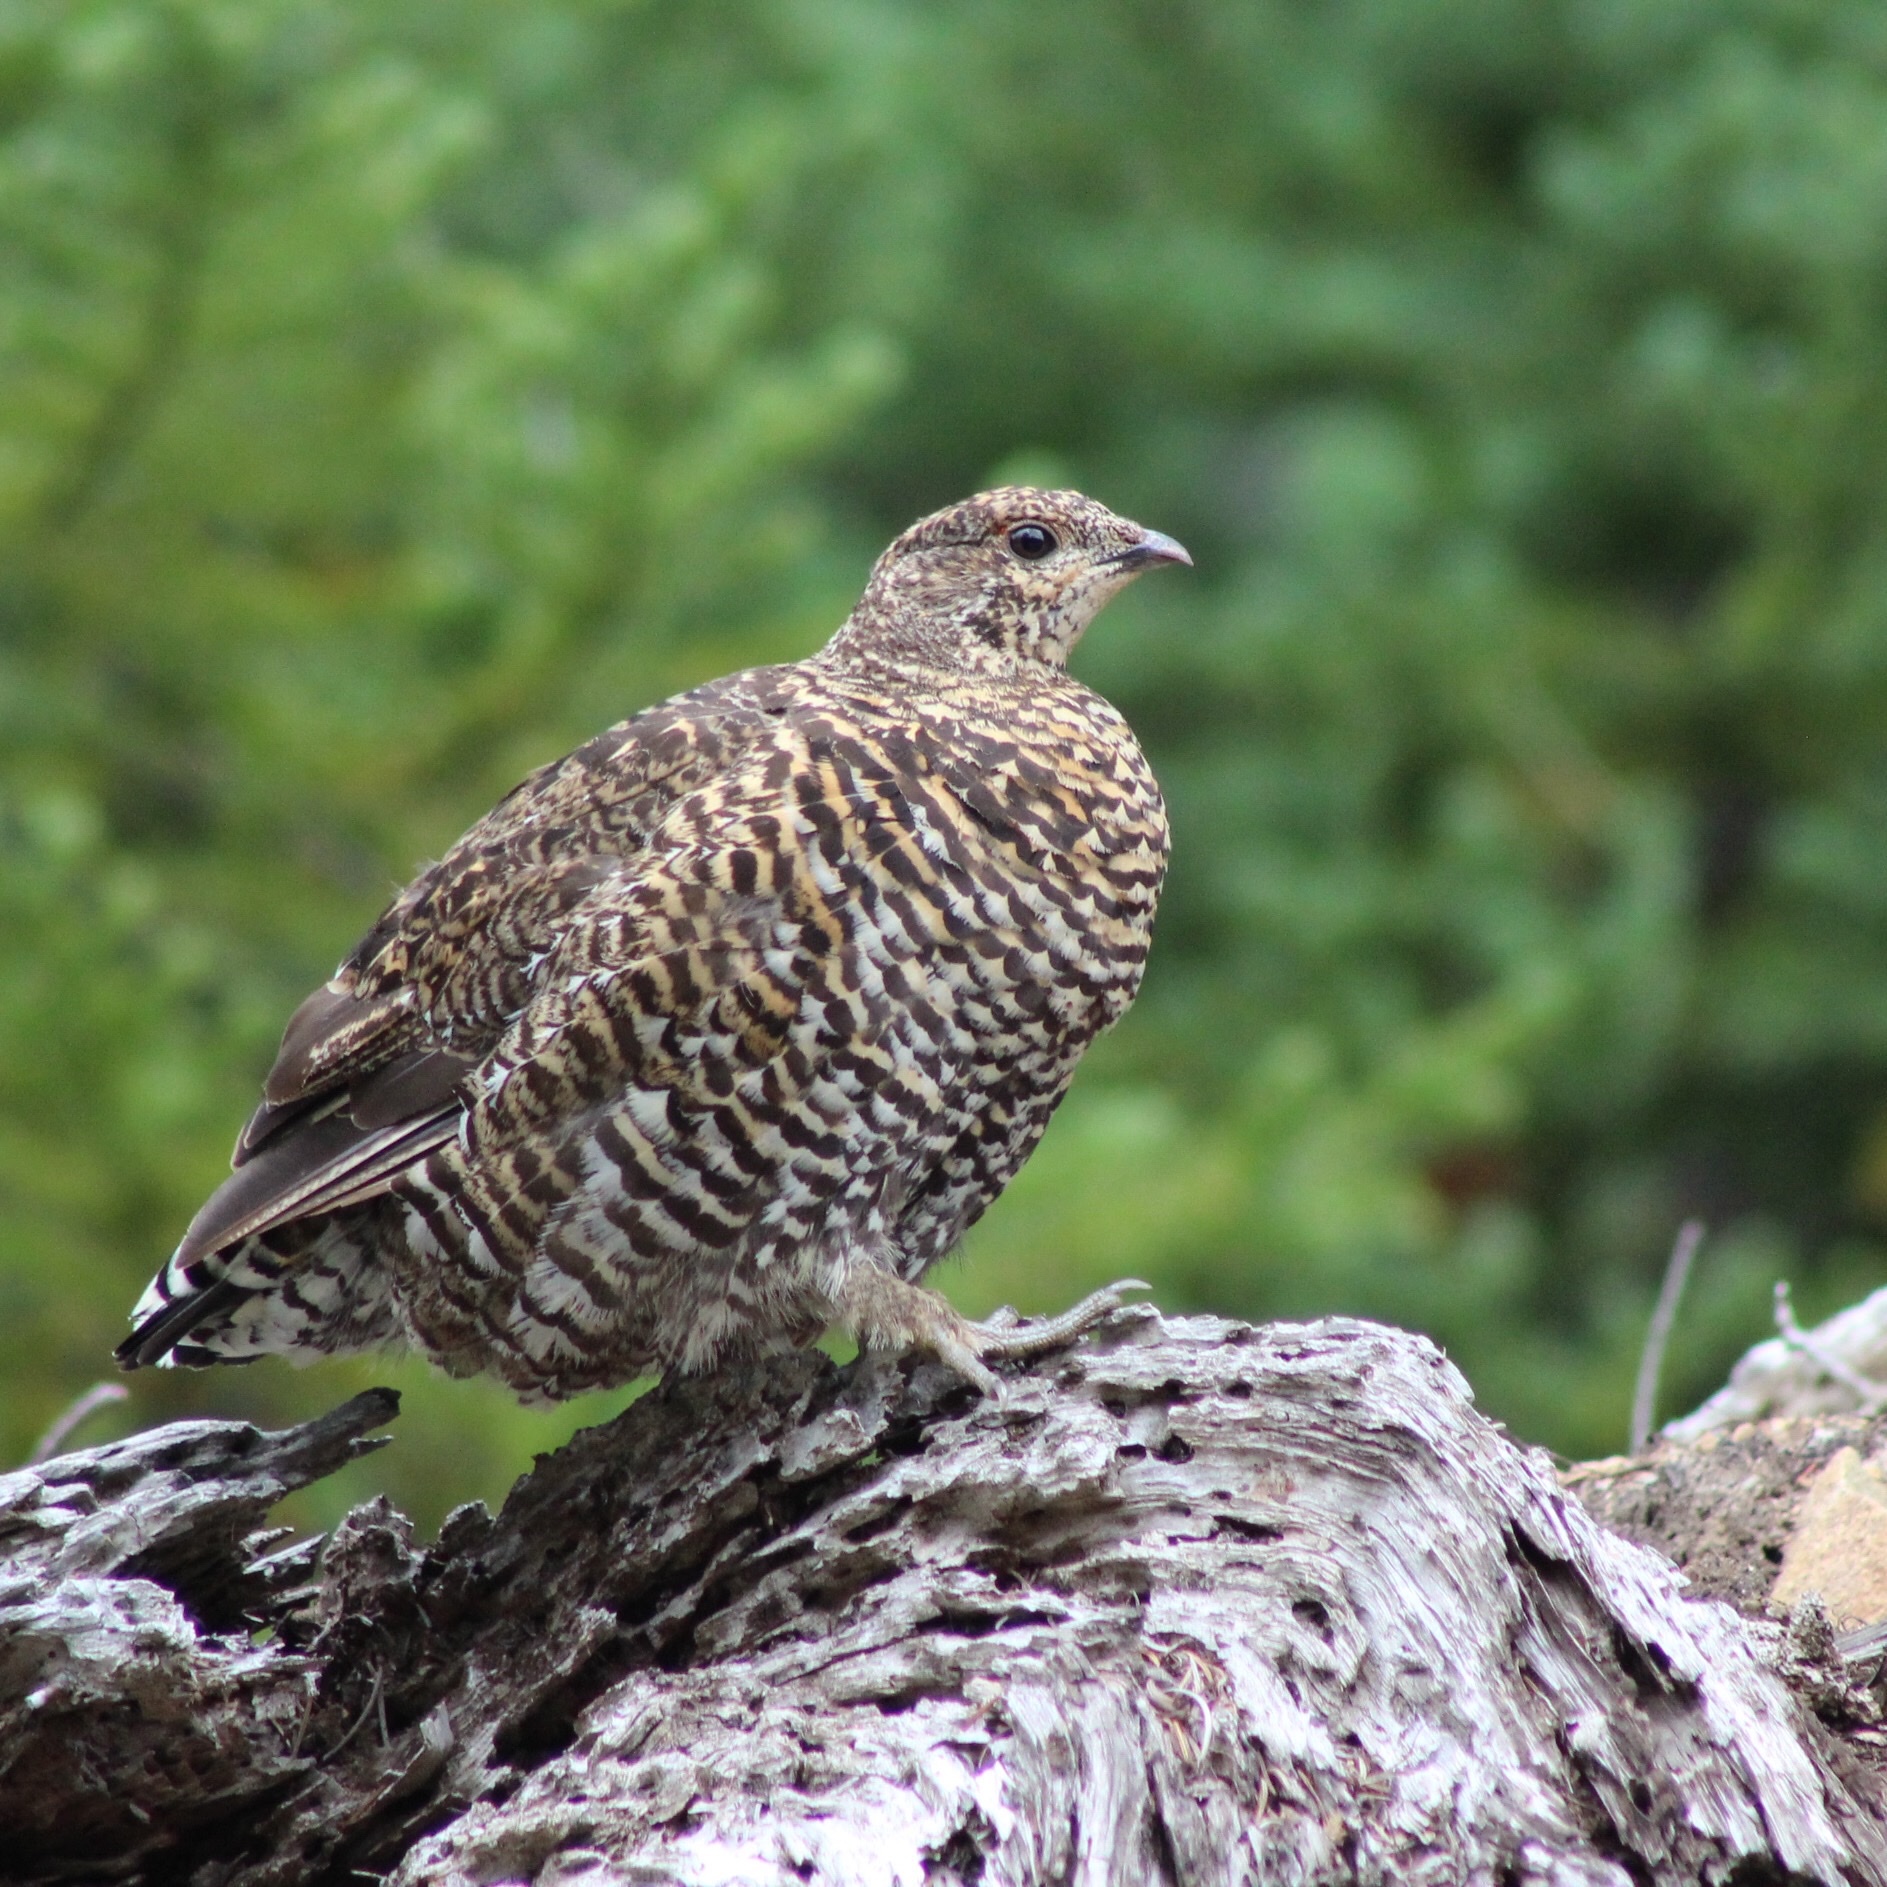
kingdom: Animalia
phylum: Chordata
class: Aves
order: Galliformes
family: Phasianidae
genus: Canachites
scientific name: Canachites canadensis
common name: Spruce grouse
